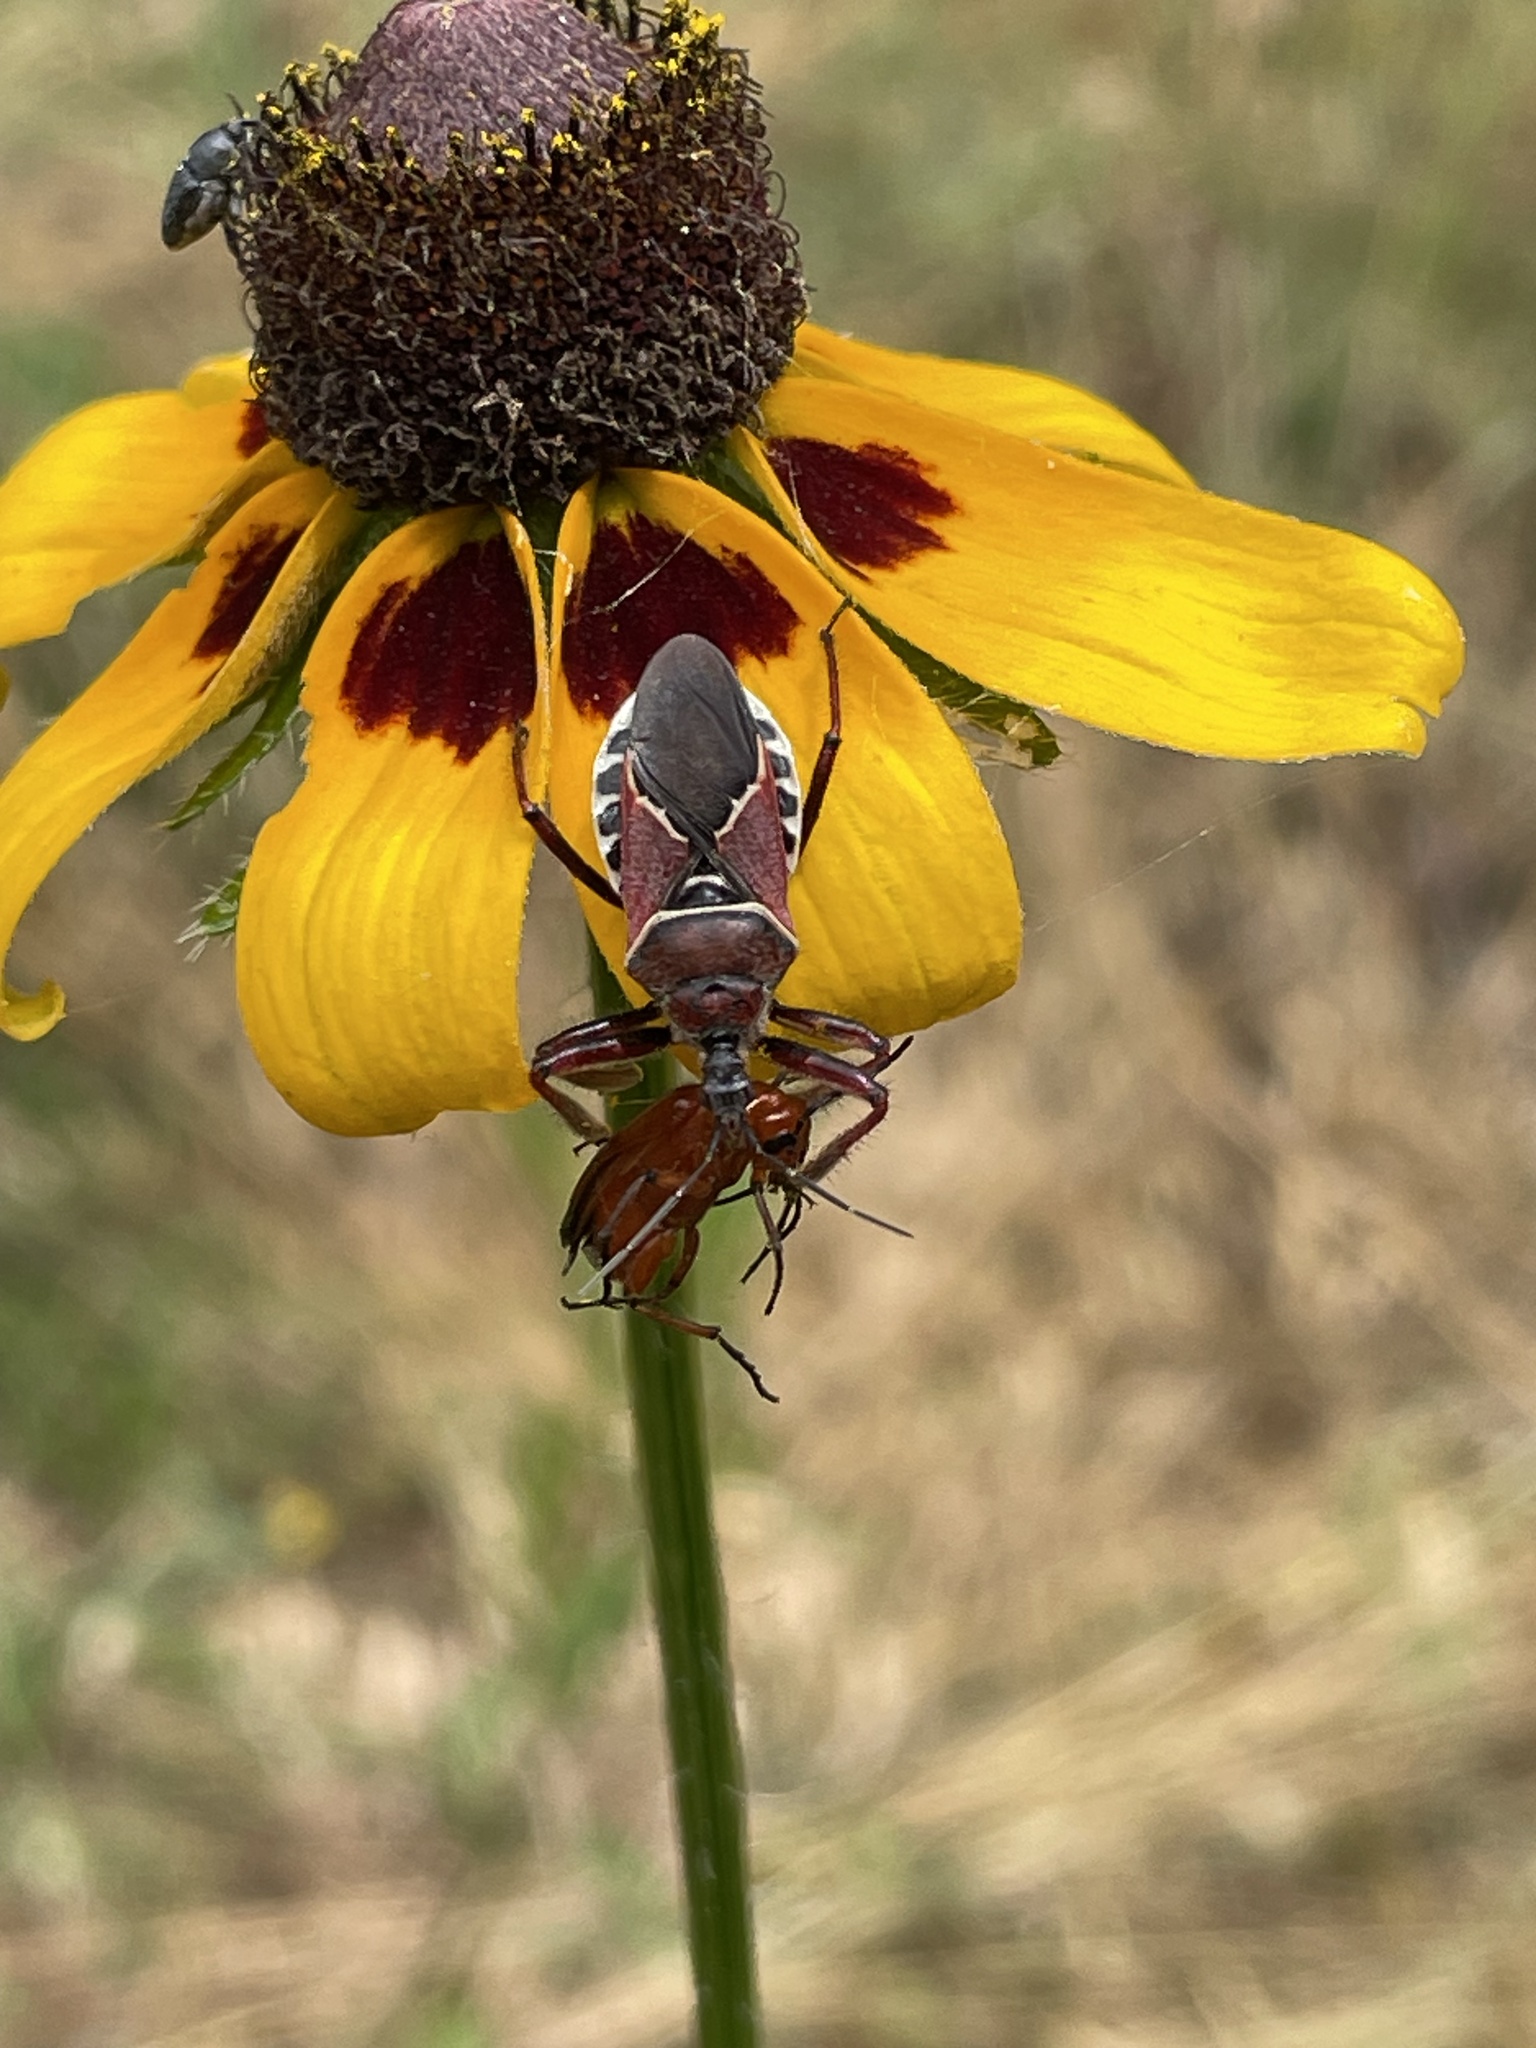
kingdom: Animalia
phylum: Arthropoda
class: Insecta
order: Hemiptera
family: Reduviidae
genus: Apiomerus
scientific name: Apiomerus spissipes
